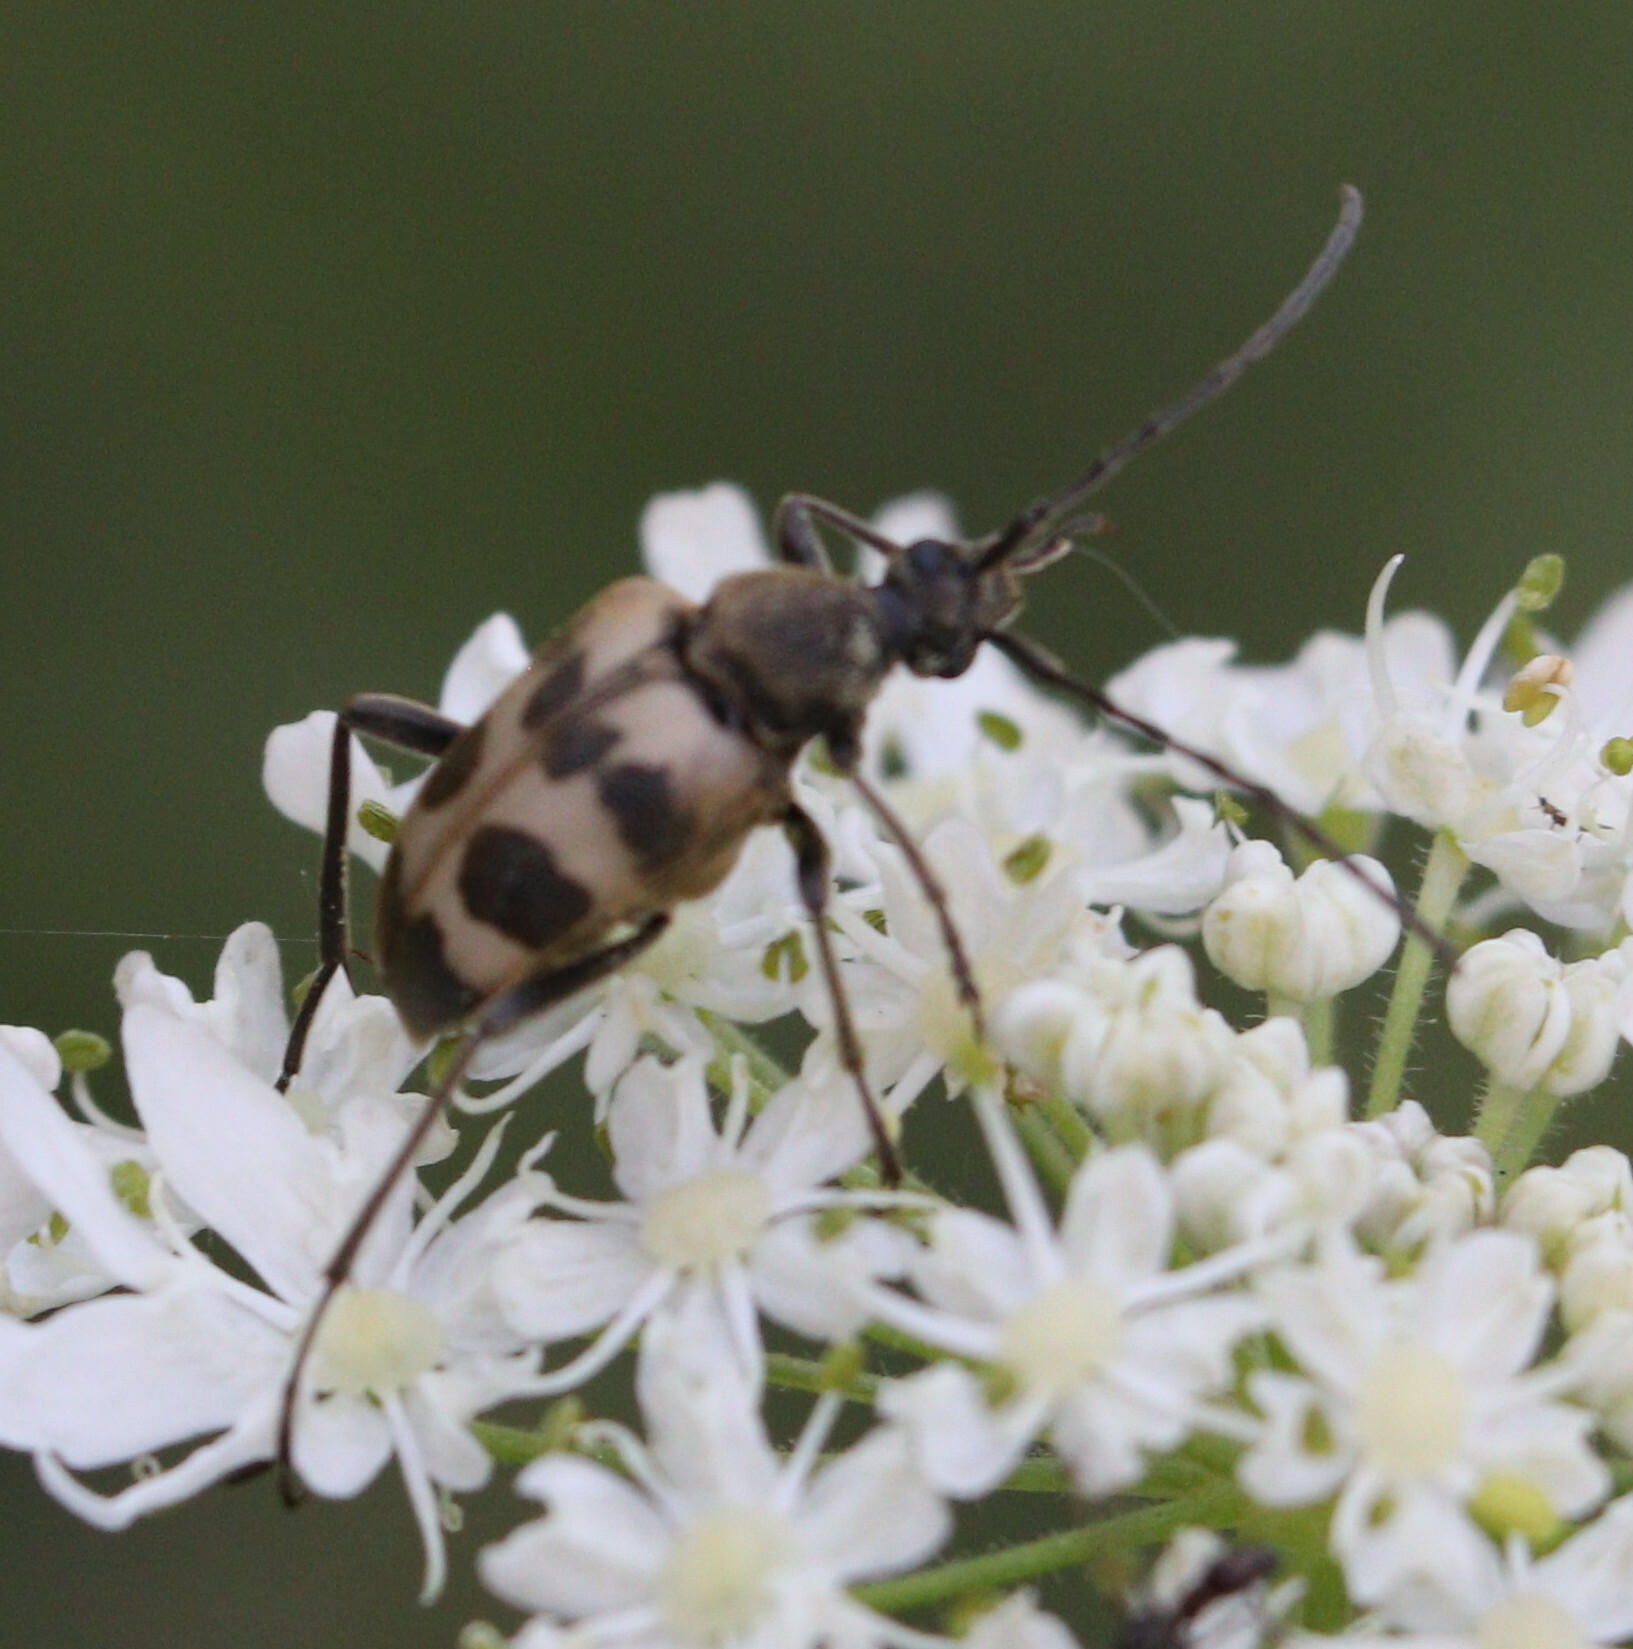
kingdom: Animalia
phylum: Arthropoda
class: Insecta
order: Coleoptera
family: Cerambycidae
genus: Pachytodes
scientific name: Pachytodes cerambyciformis
